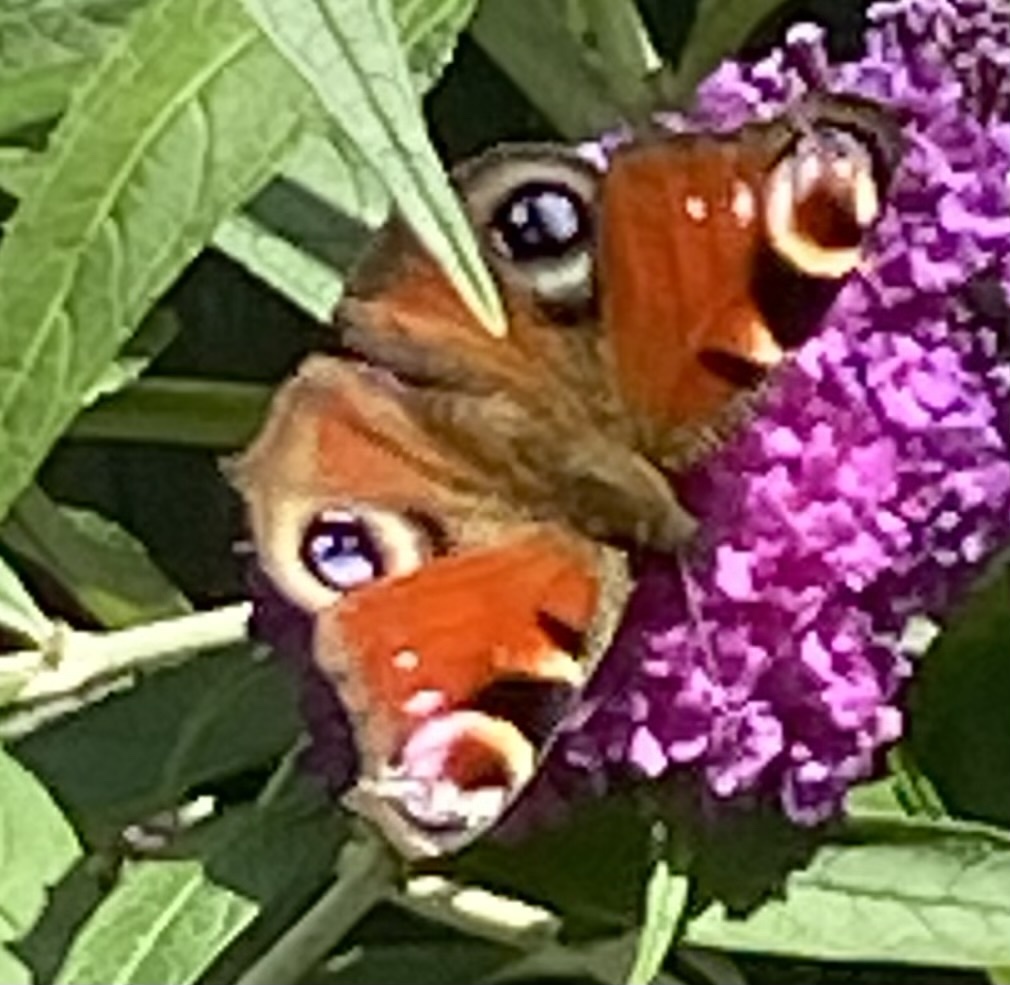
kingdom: Animalia
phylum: Arthropoda
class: Insecta
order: Lepidoptera
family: Nymphalidae
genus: Aglais
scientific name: Aglais io
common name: Peacock
